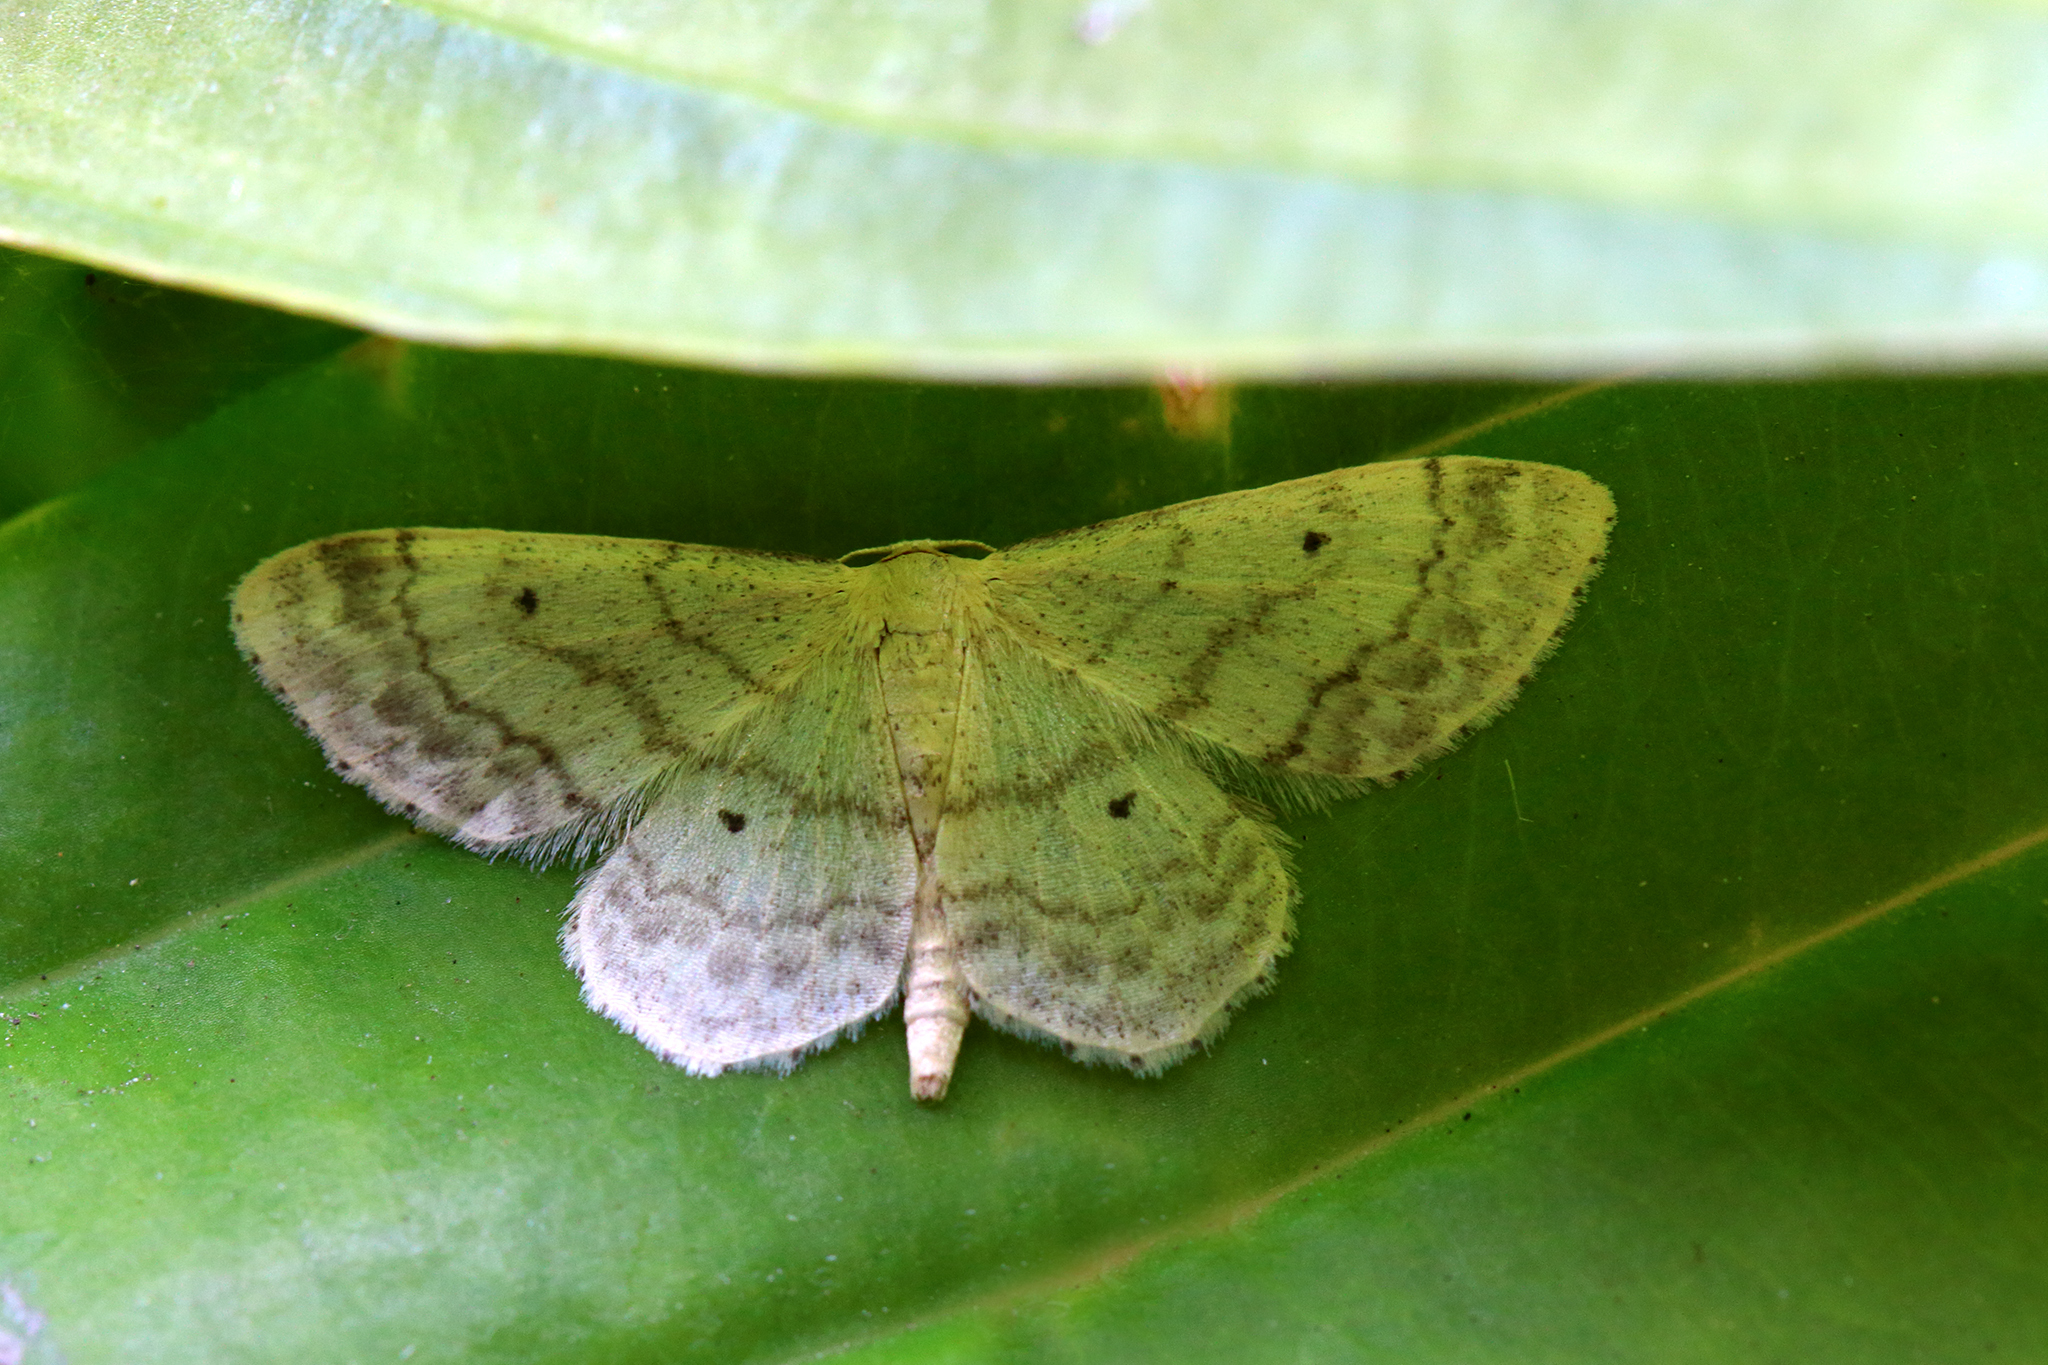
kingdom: Animalia
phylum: Arthropoda
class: Insecta
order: Lepidoptera
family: Geometridae
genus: Idaea
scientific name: Idaea biselata
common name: Small fan-footed wave
